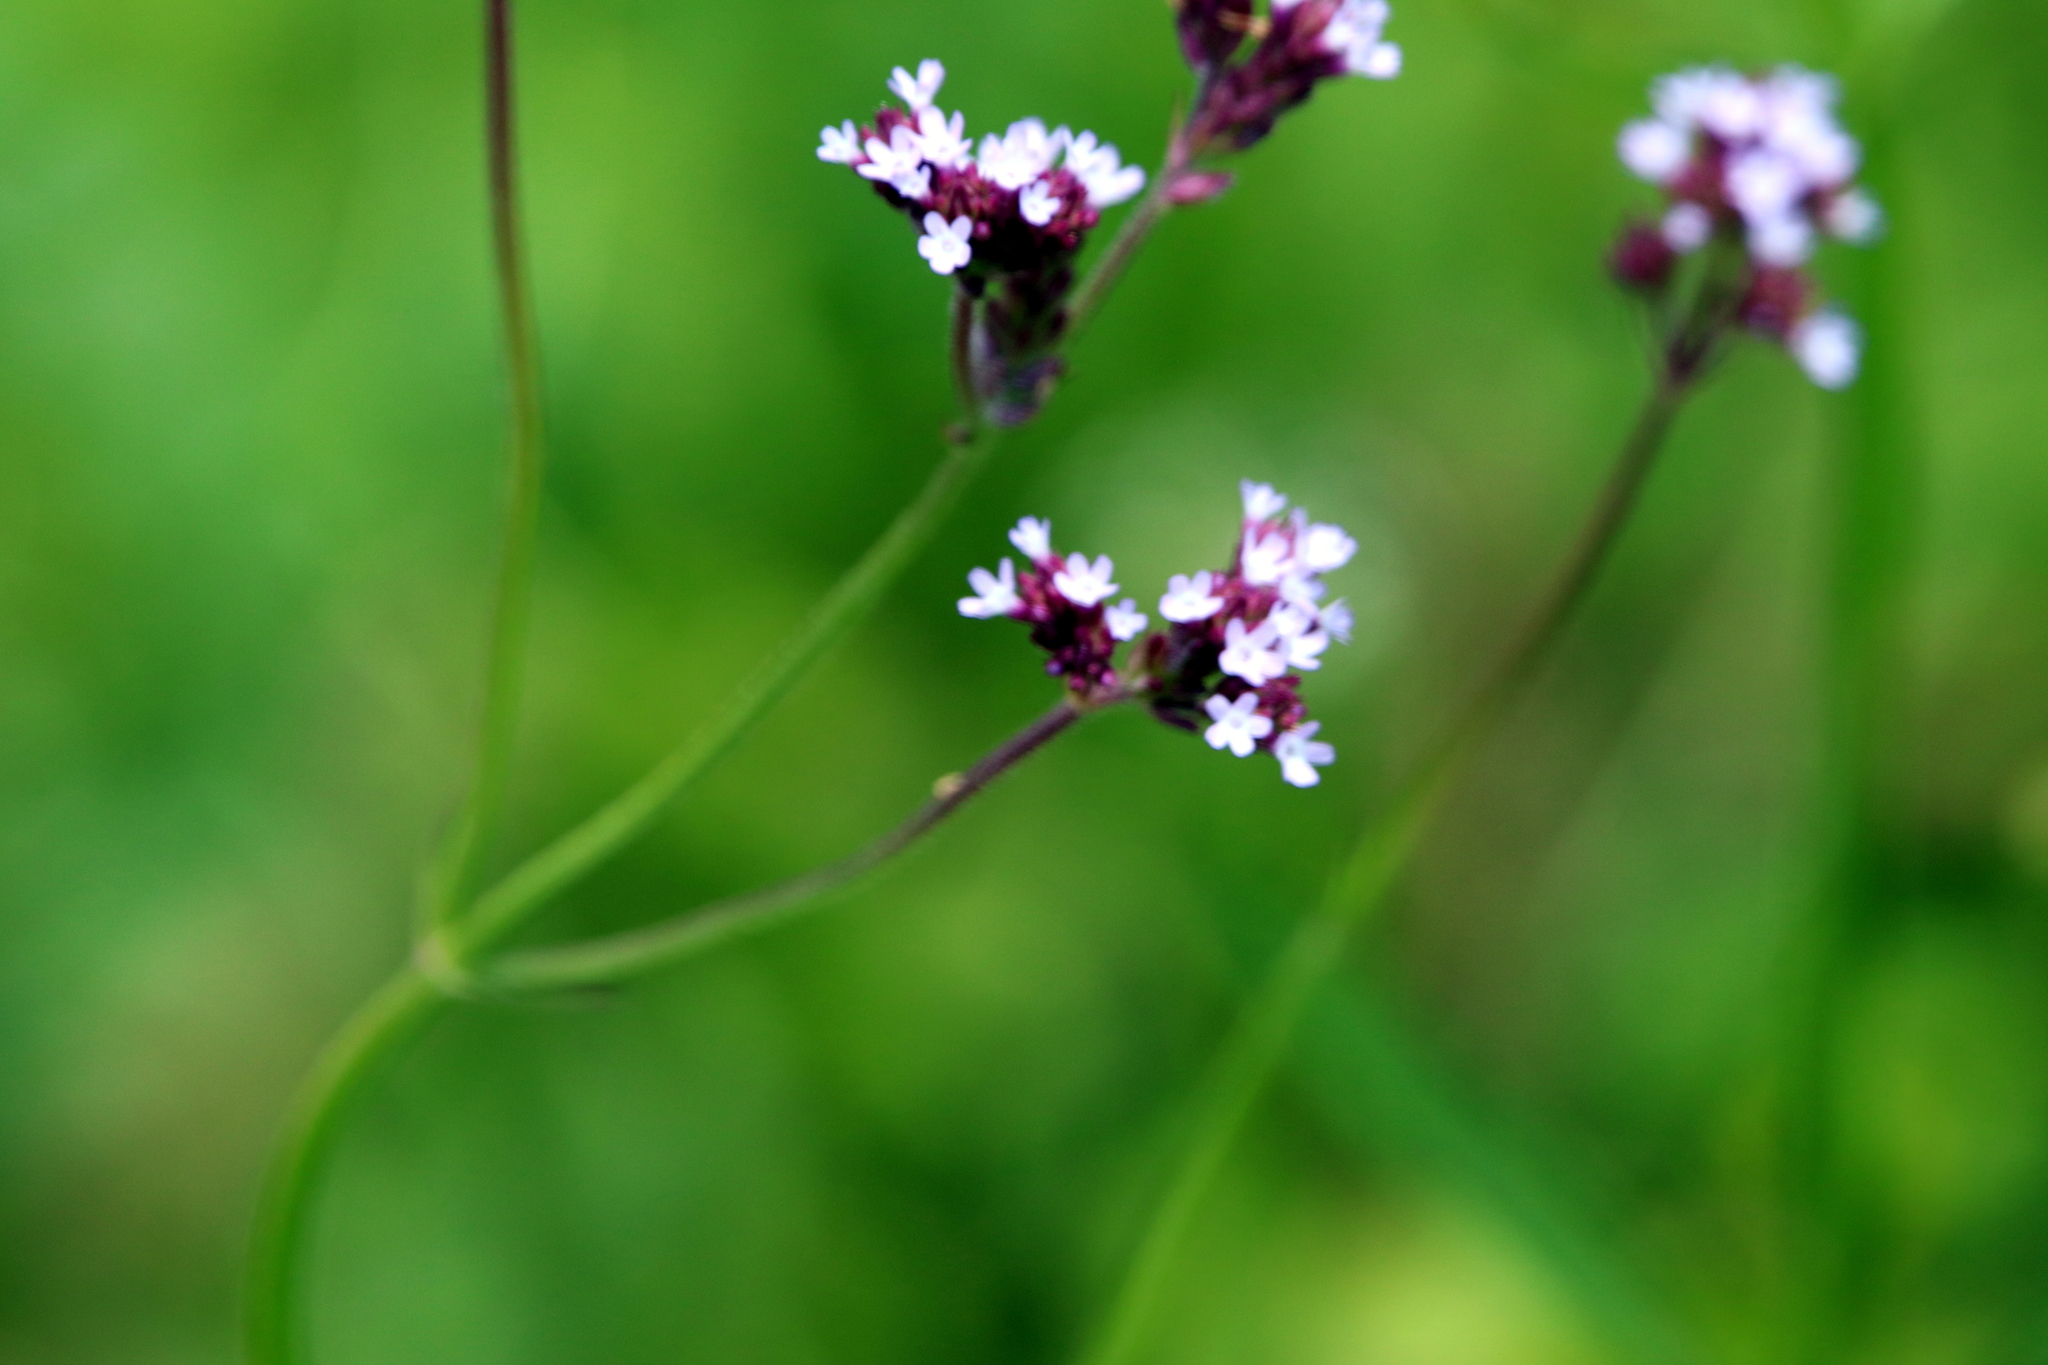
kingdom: Plantae
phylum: Tracheophyta
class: Magnoliopsida
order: Lamiales
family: Verbenaceae
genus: Verbena
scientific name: Verbena brasiliensis
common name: Brazilian vervain
